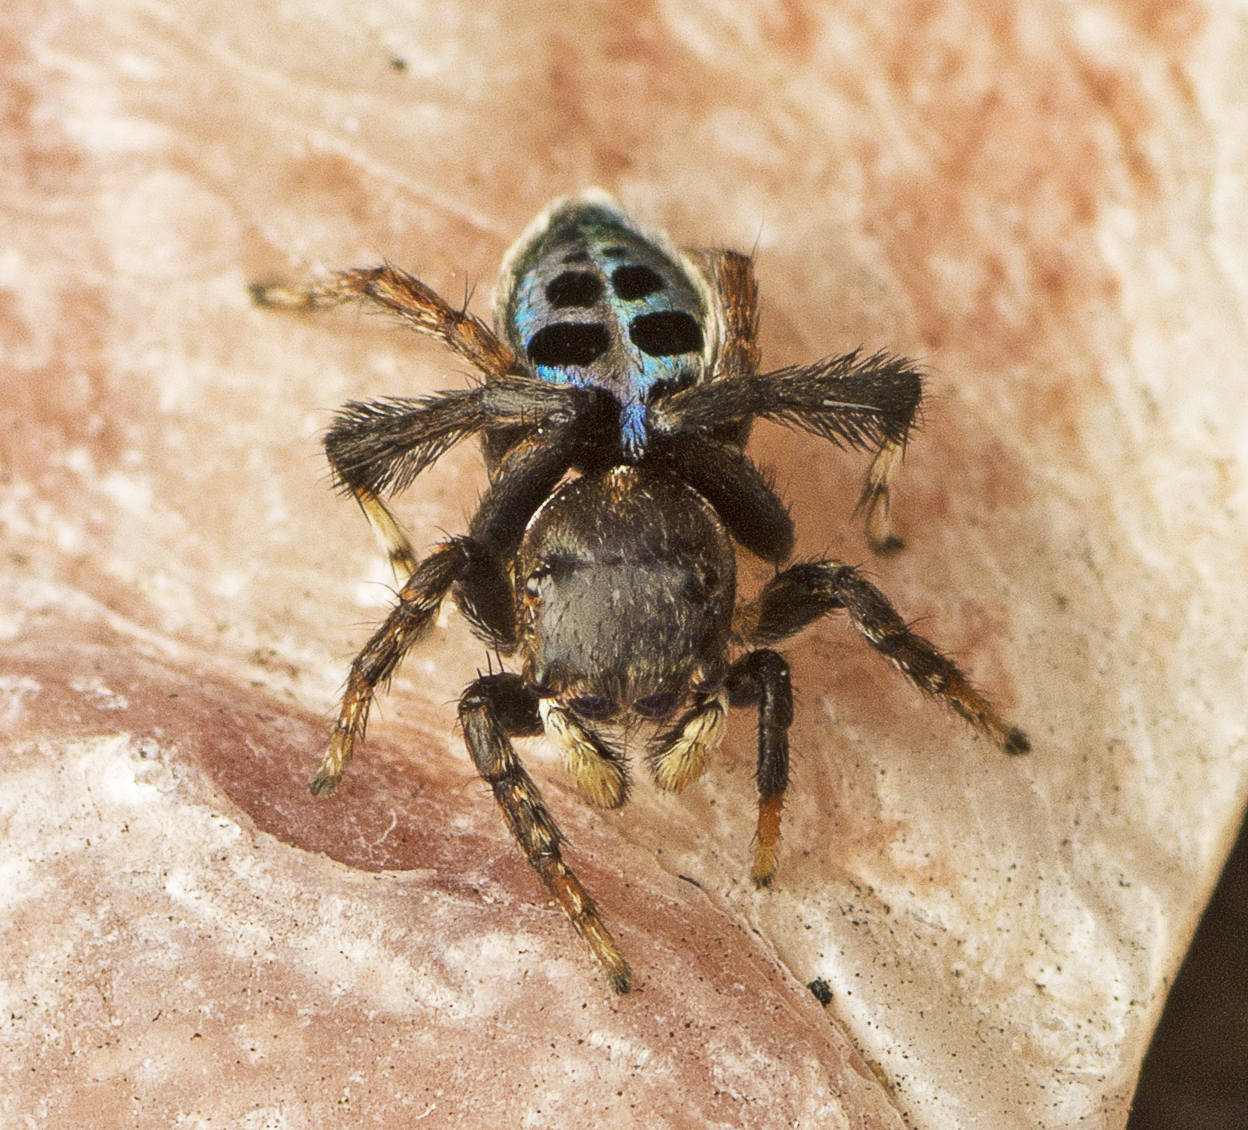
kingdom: Animalia
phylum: Arthropoda
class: Arachnida
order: Araneae
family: Salticidae
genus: Maratus
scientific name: Maratus nigromaculatus
